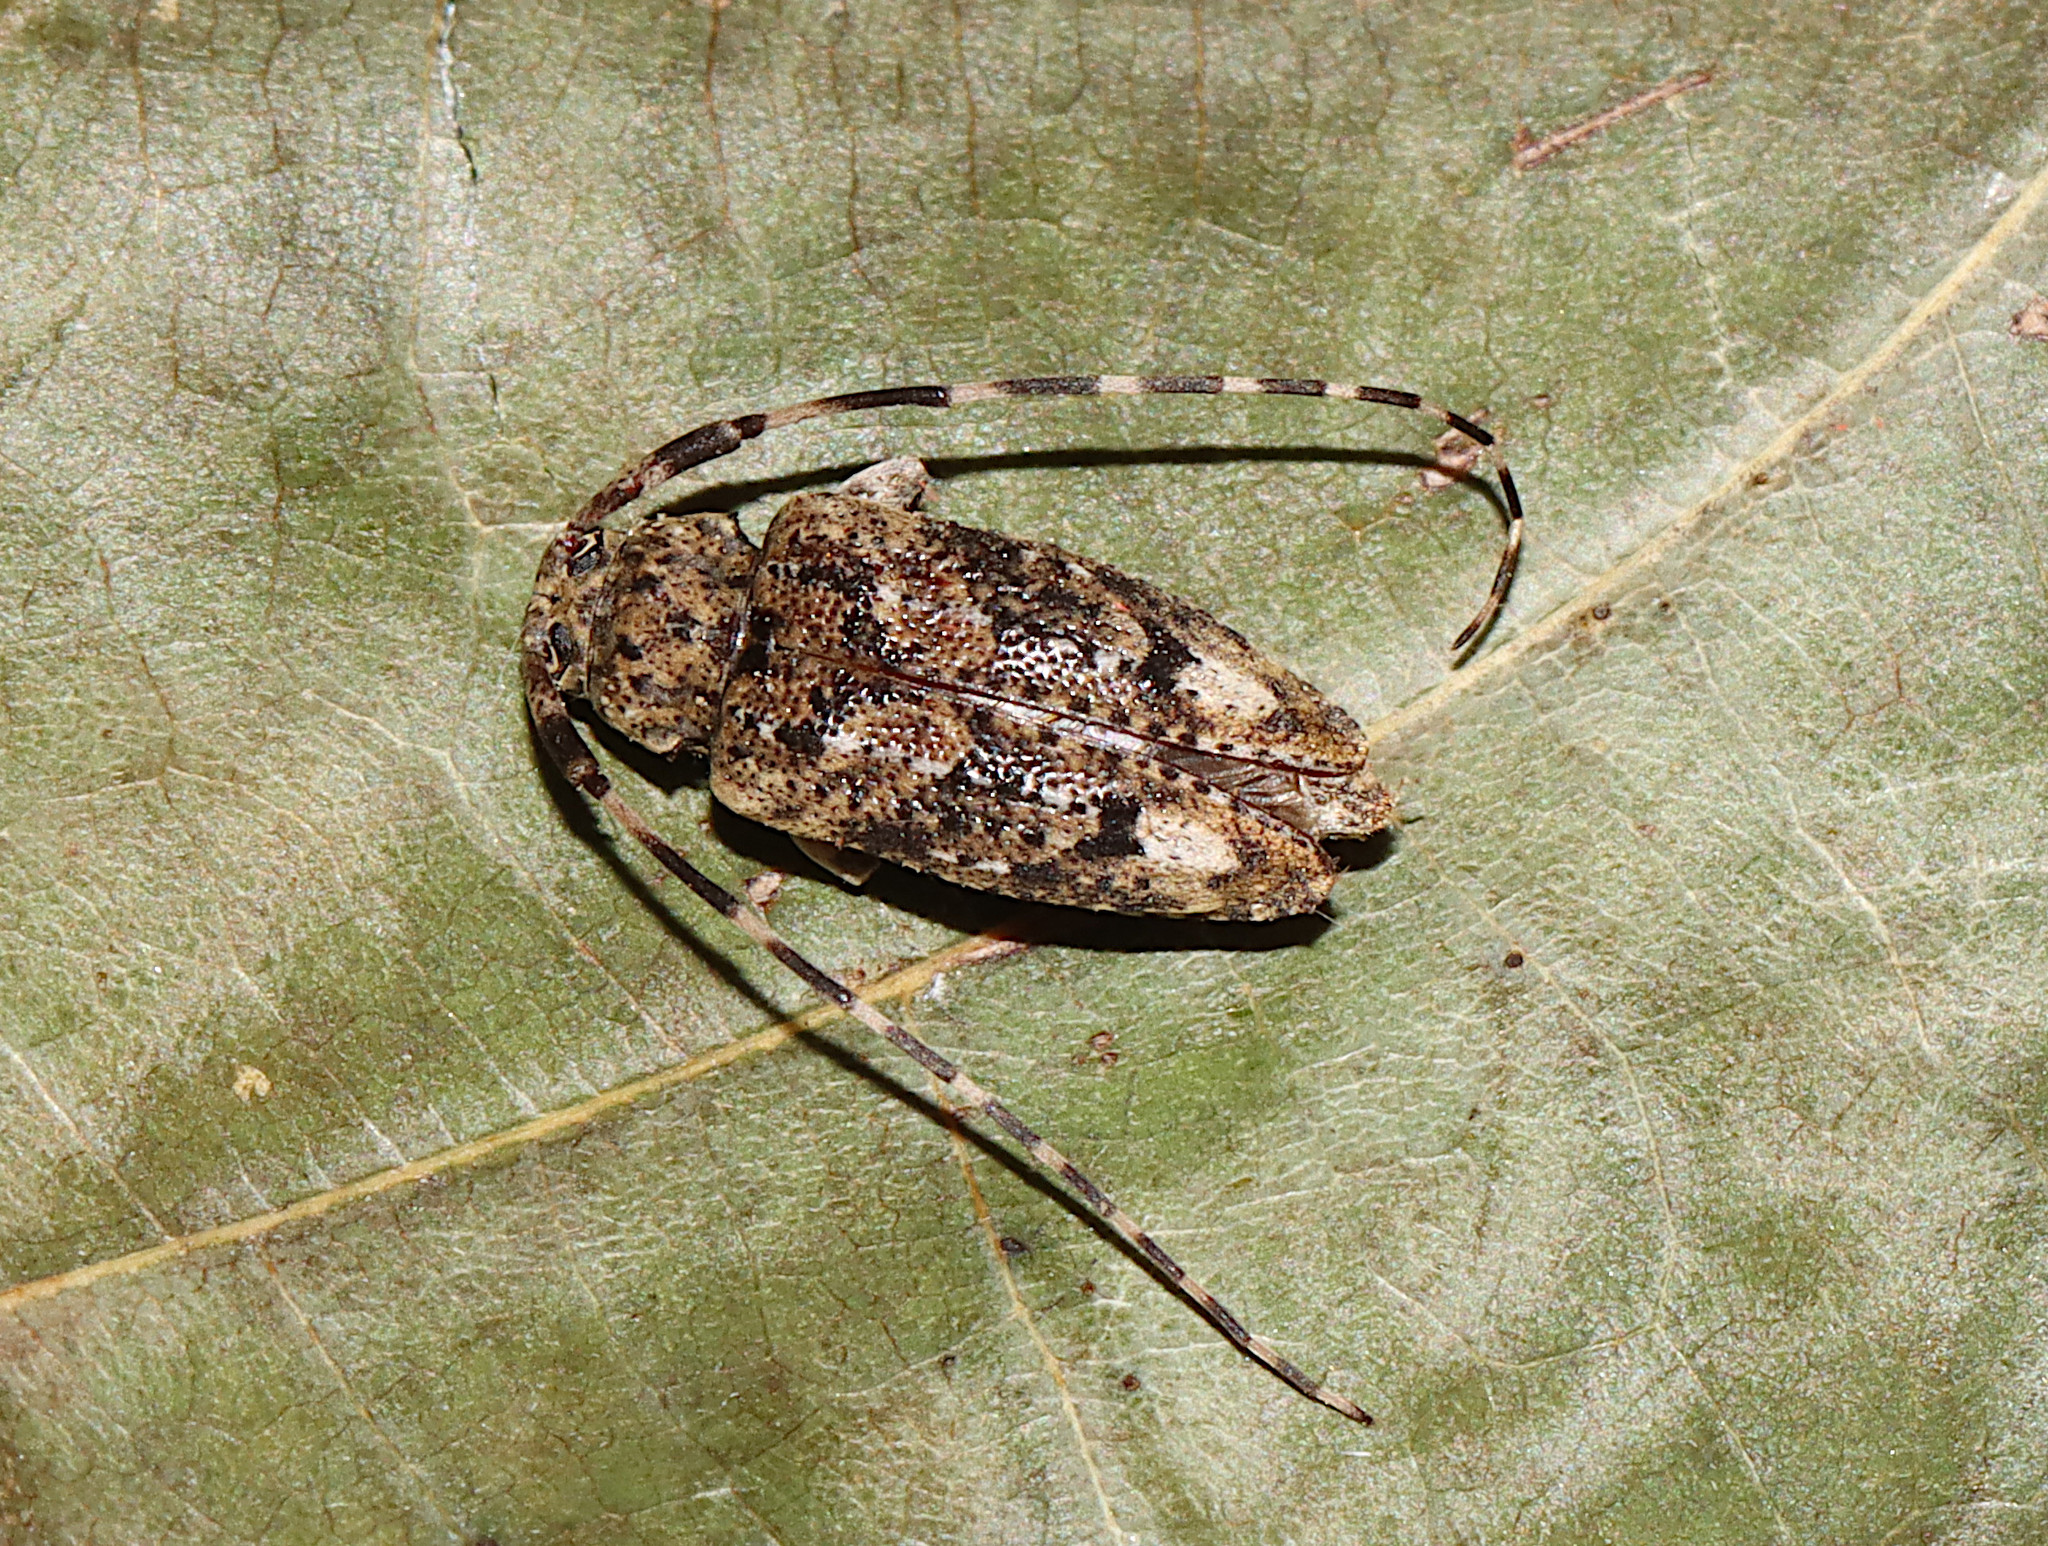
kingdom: Animalia
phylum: Arthropoda
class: Insecta
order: Coleoptera
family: Cerambycidae
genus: Astyleiopus
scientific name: Astyleiopus variegatus
